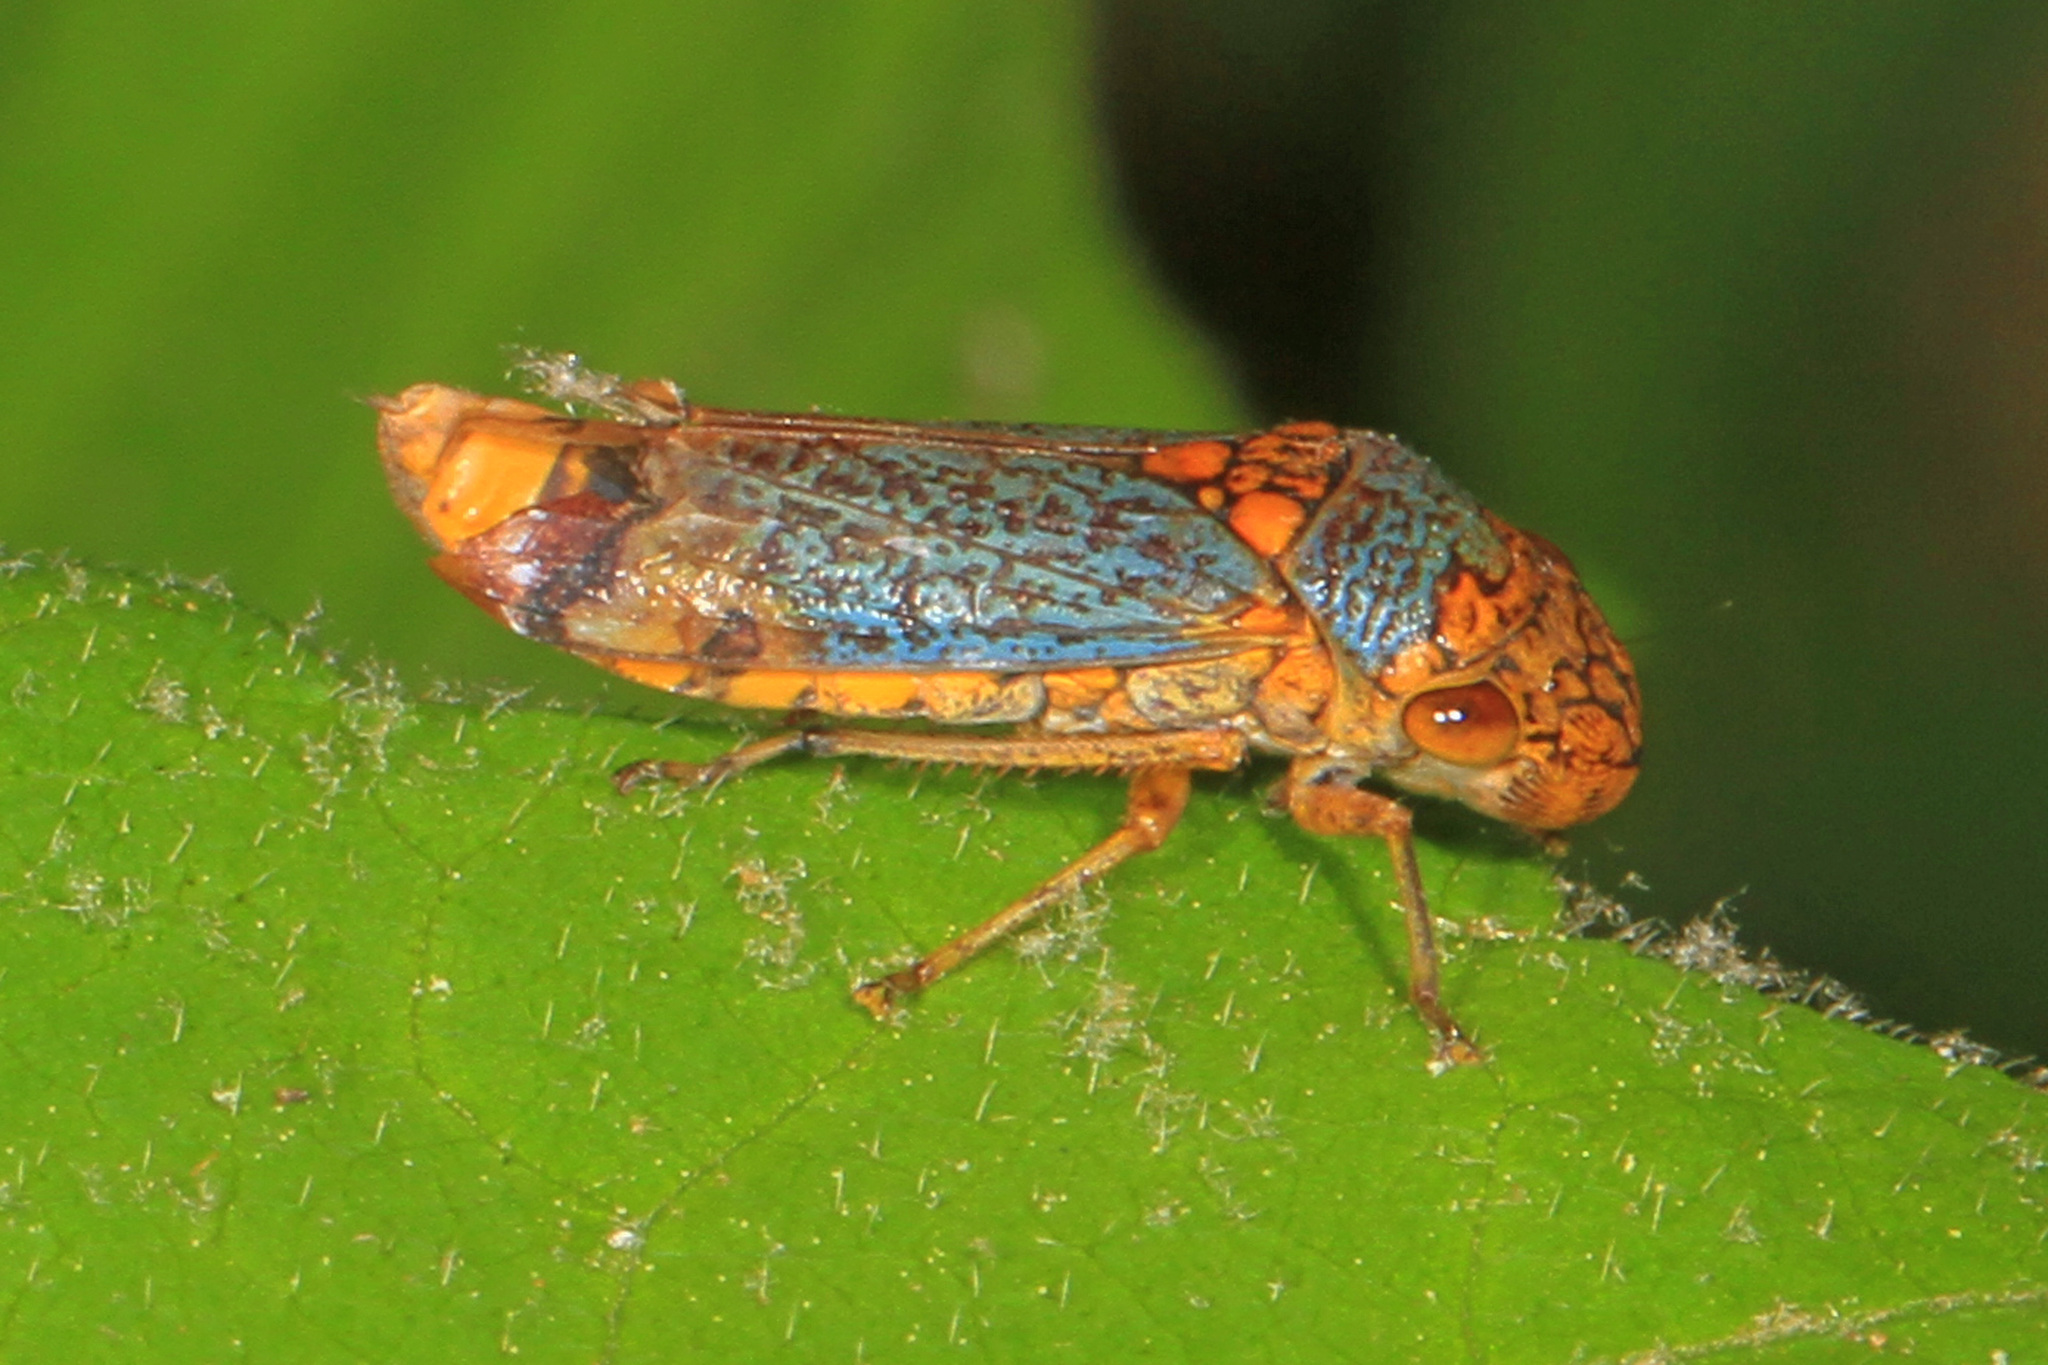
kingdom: Animalia
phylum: Arthropoda
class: Insecta
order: Hemiptera
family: Cicadellidae
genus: Oncometopia
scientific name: Oncometopia orbona
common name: Broad-headed sharpshooter
